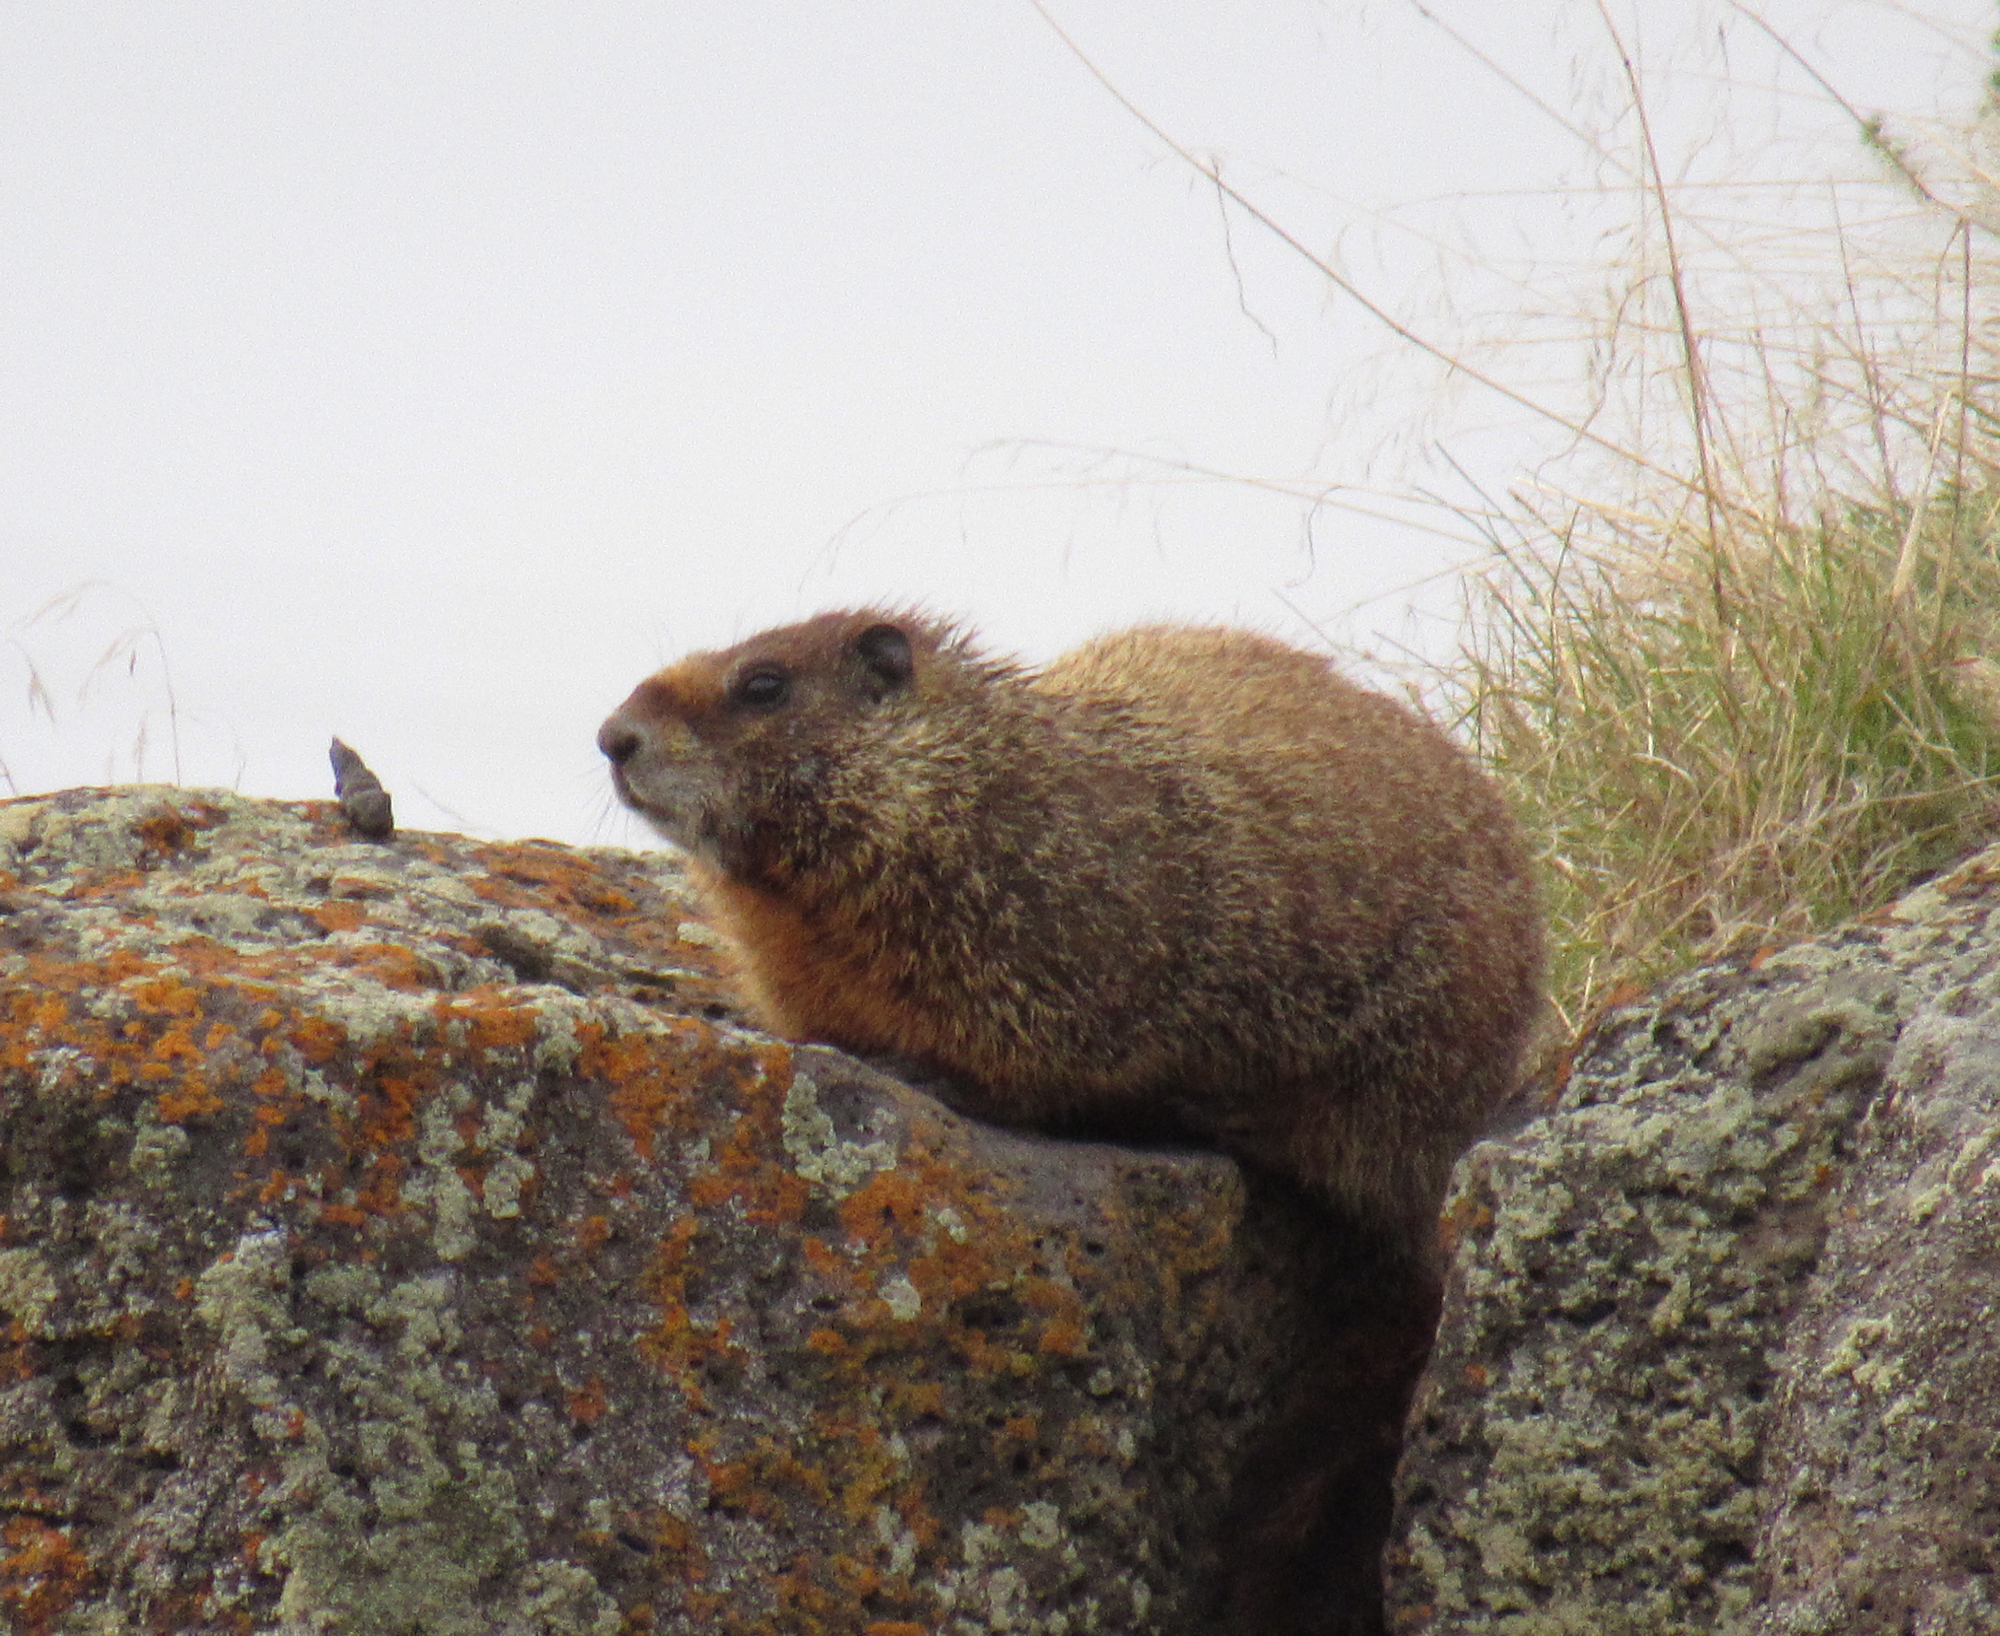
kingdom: Animalia
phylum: Chordata
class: Mammalia
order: Rodentia
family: Sciuridae
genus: Marmota
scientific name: Marmota flaviventris
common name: Yellow-bellied marmot
